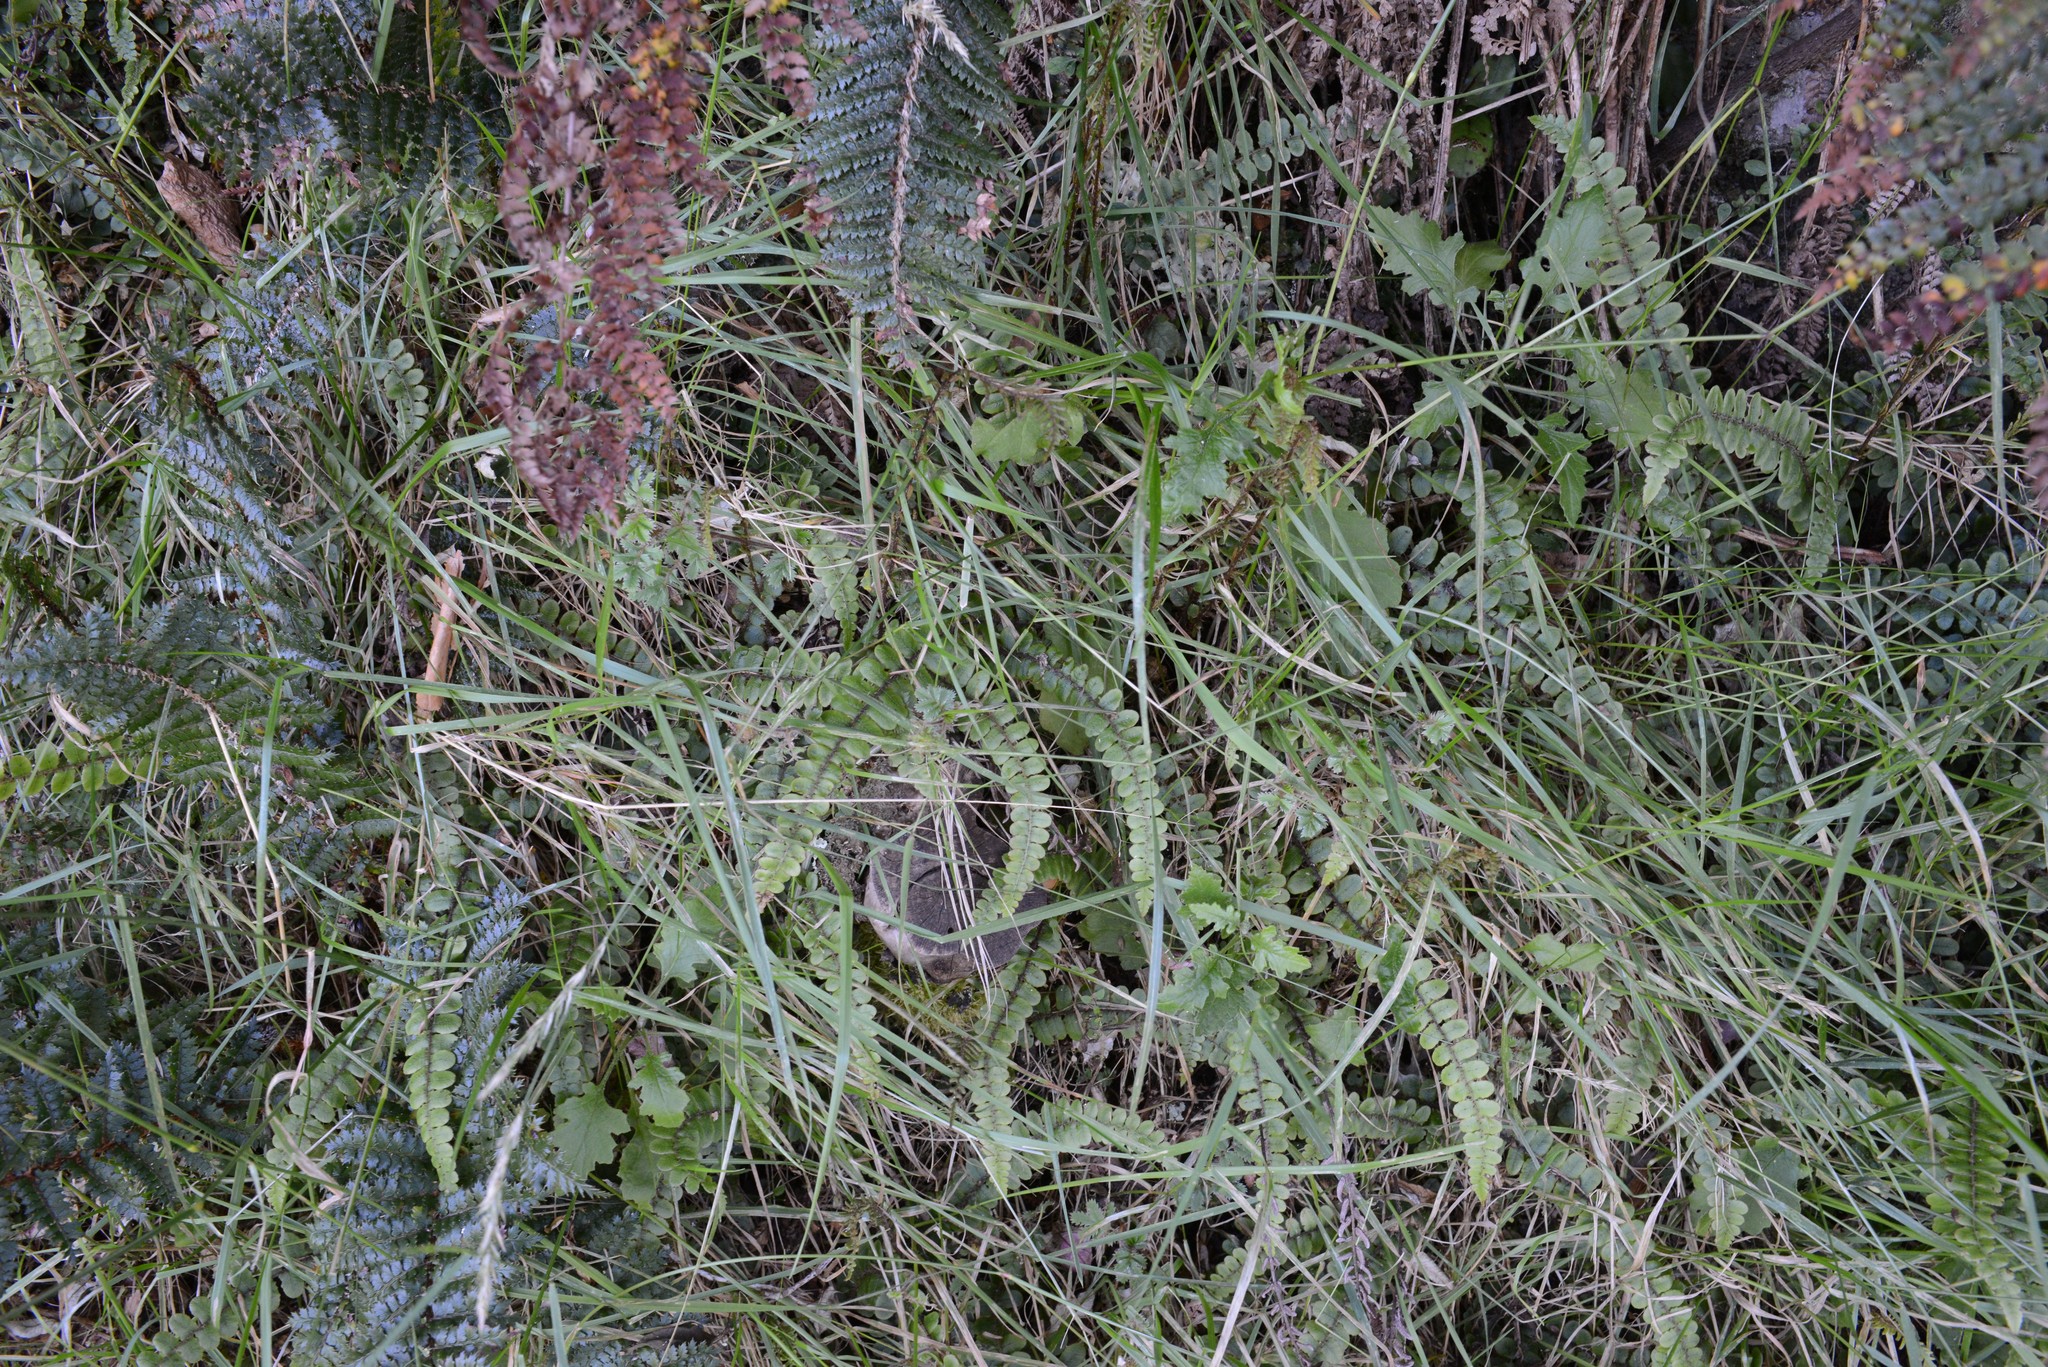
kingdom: Plantae
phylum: Tracheophyta
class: Magnoliopsida
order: Asterales
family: Asteraceae
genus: Senecio
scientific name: Senecio wairauensis
